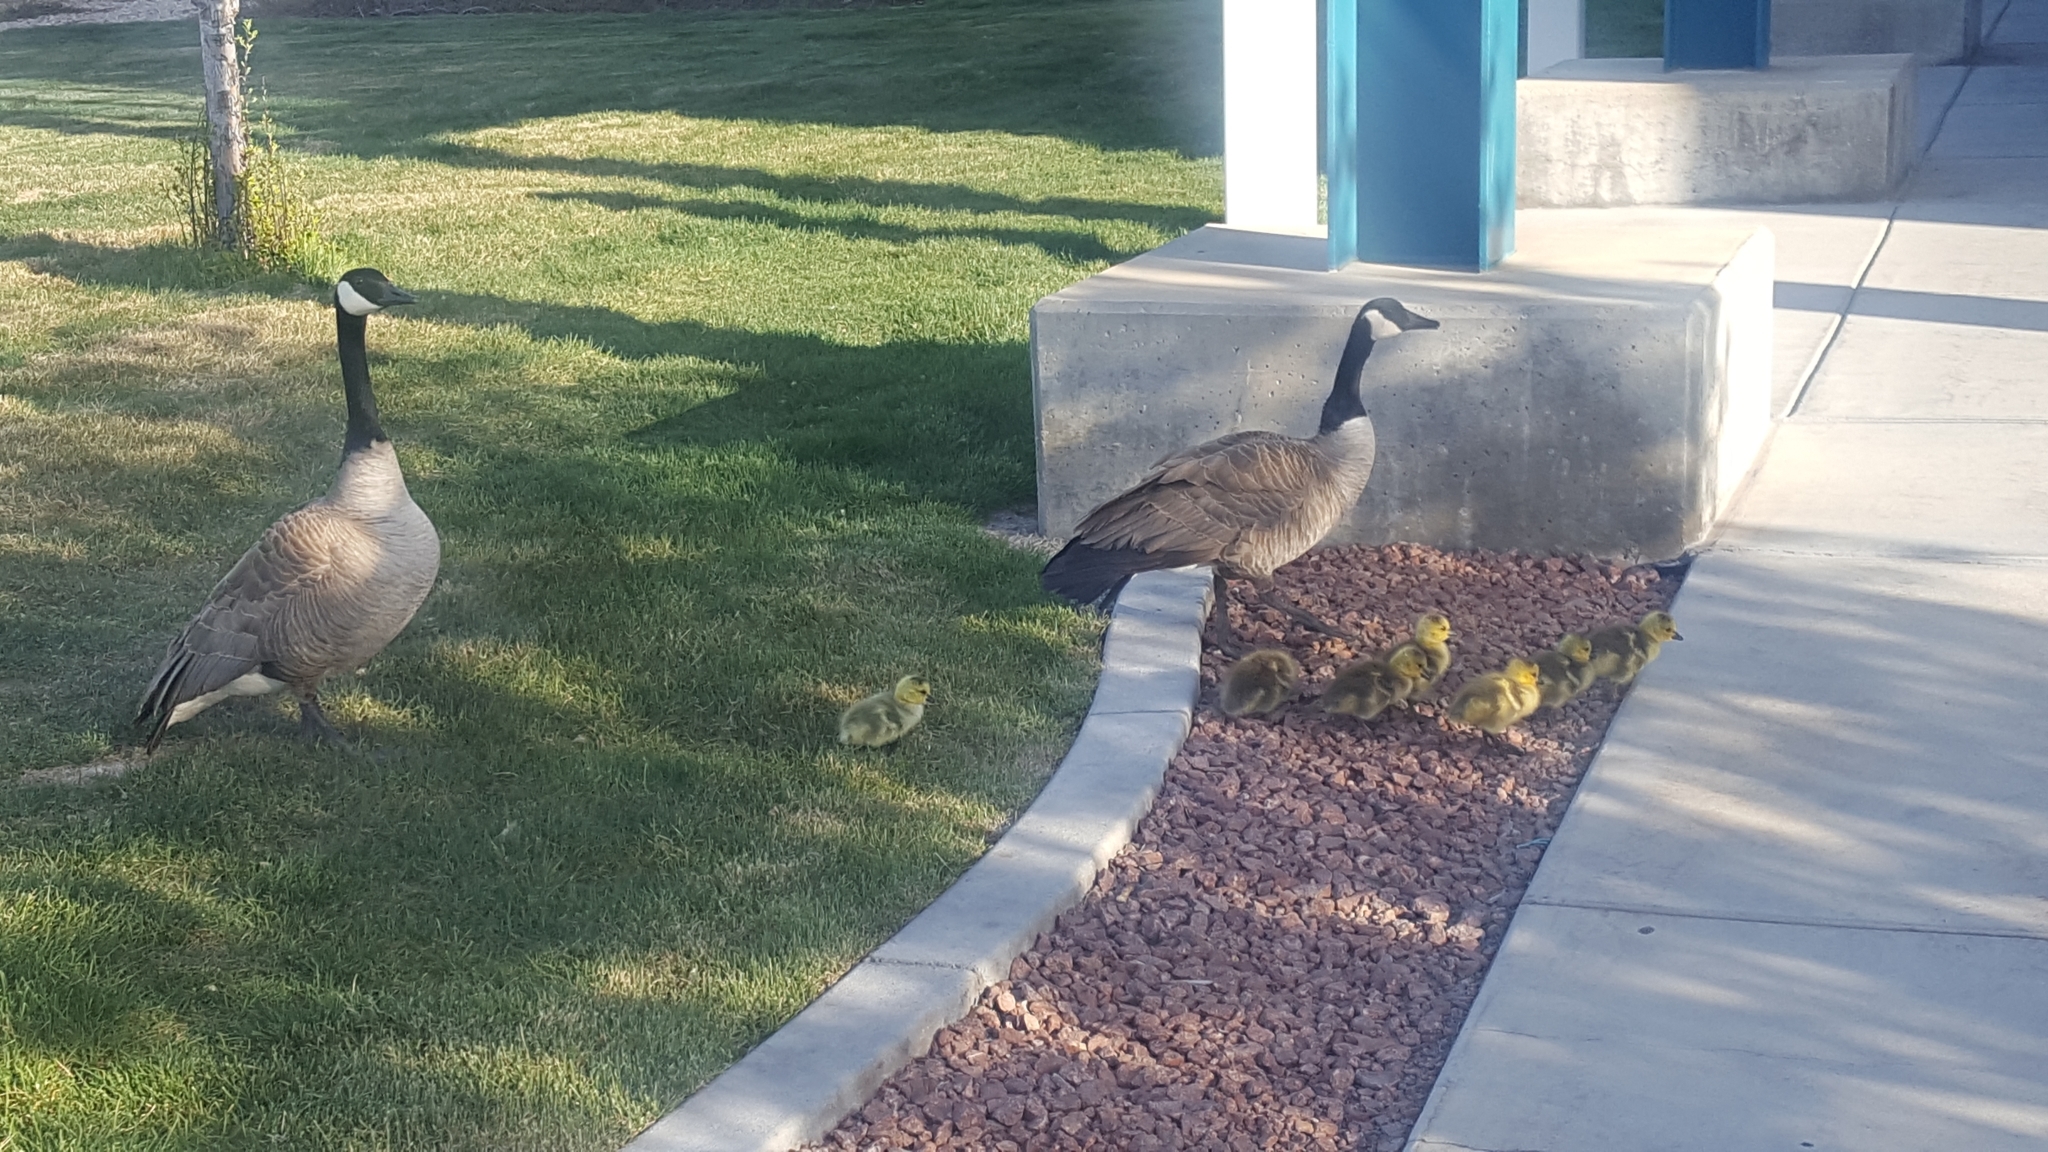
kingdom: Animalia
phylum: Chordata
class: Aves
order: Anseriformes
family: Anatidae
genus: Branta
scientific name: Branta canadensis
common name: Canada goose
